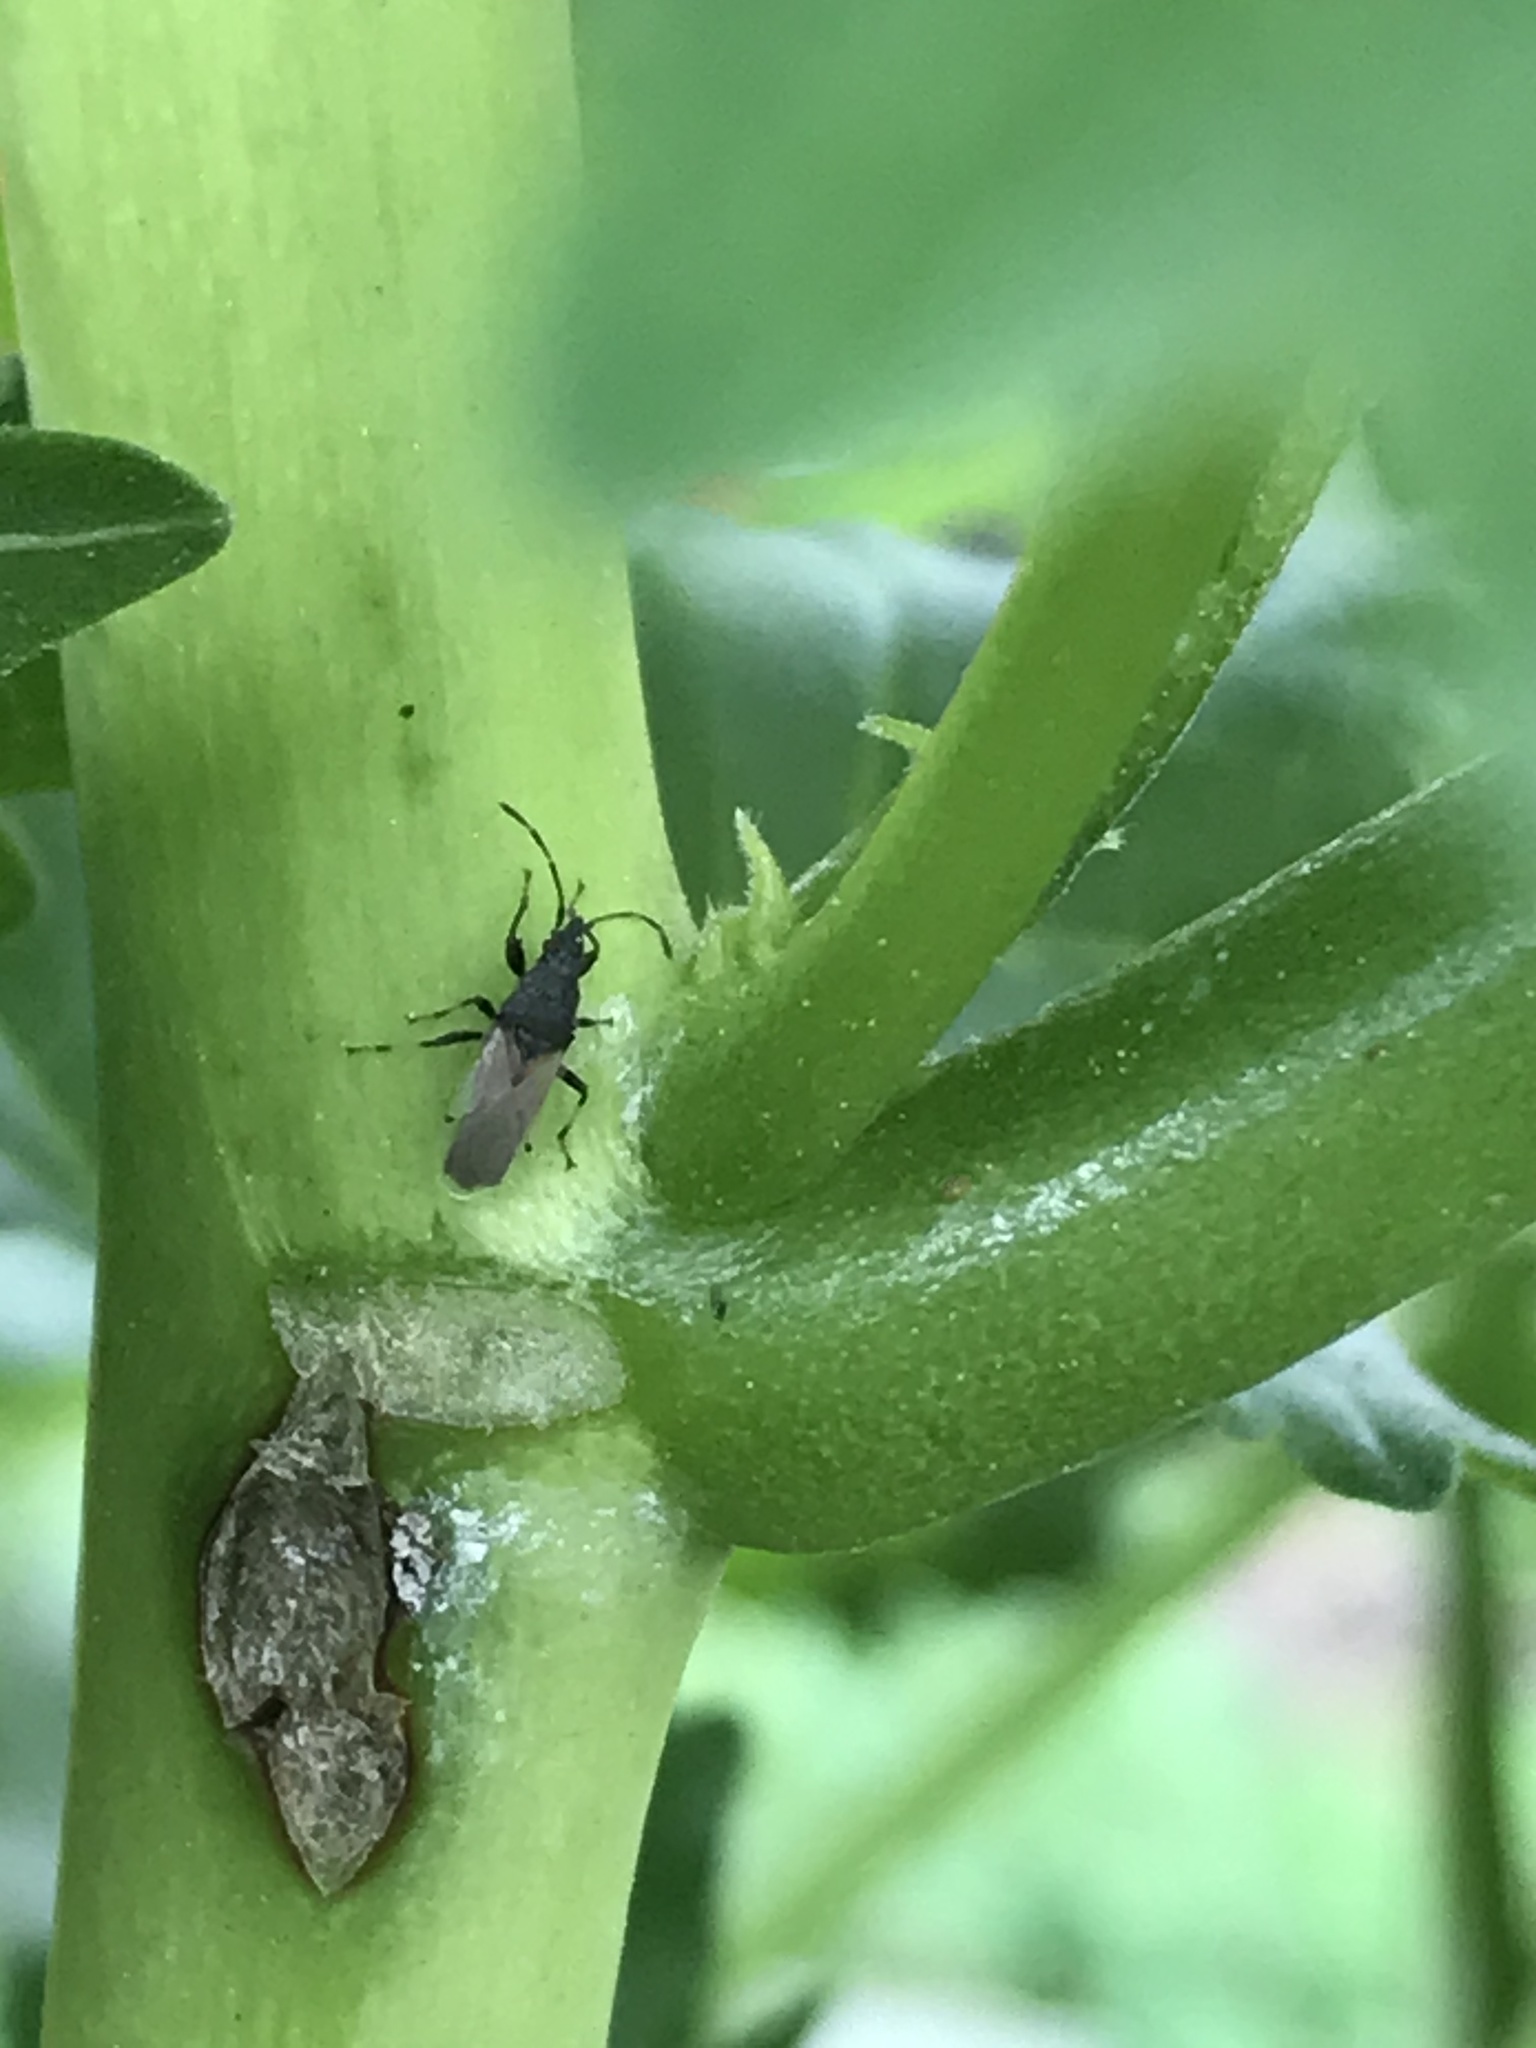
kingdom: Animalia
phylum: Arthropoda
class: Insecta
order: Hemiptera
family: Oxycarenidae
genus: Oxycarenus
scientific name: Oxycarenus hyalinipennis
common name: Cotton seed bug
